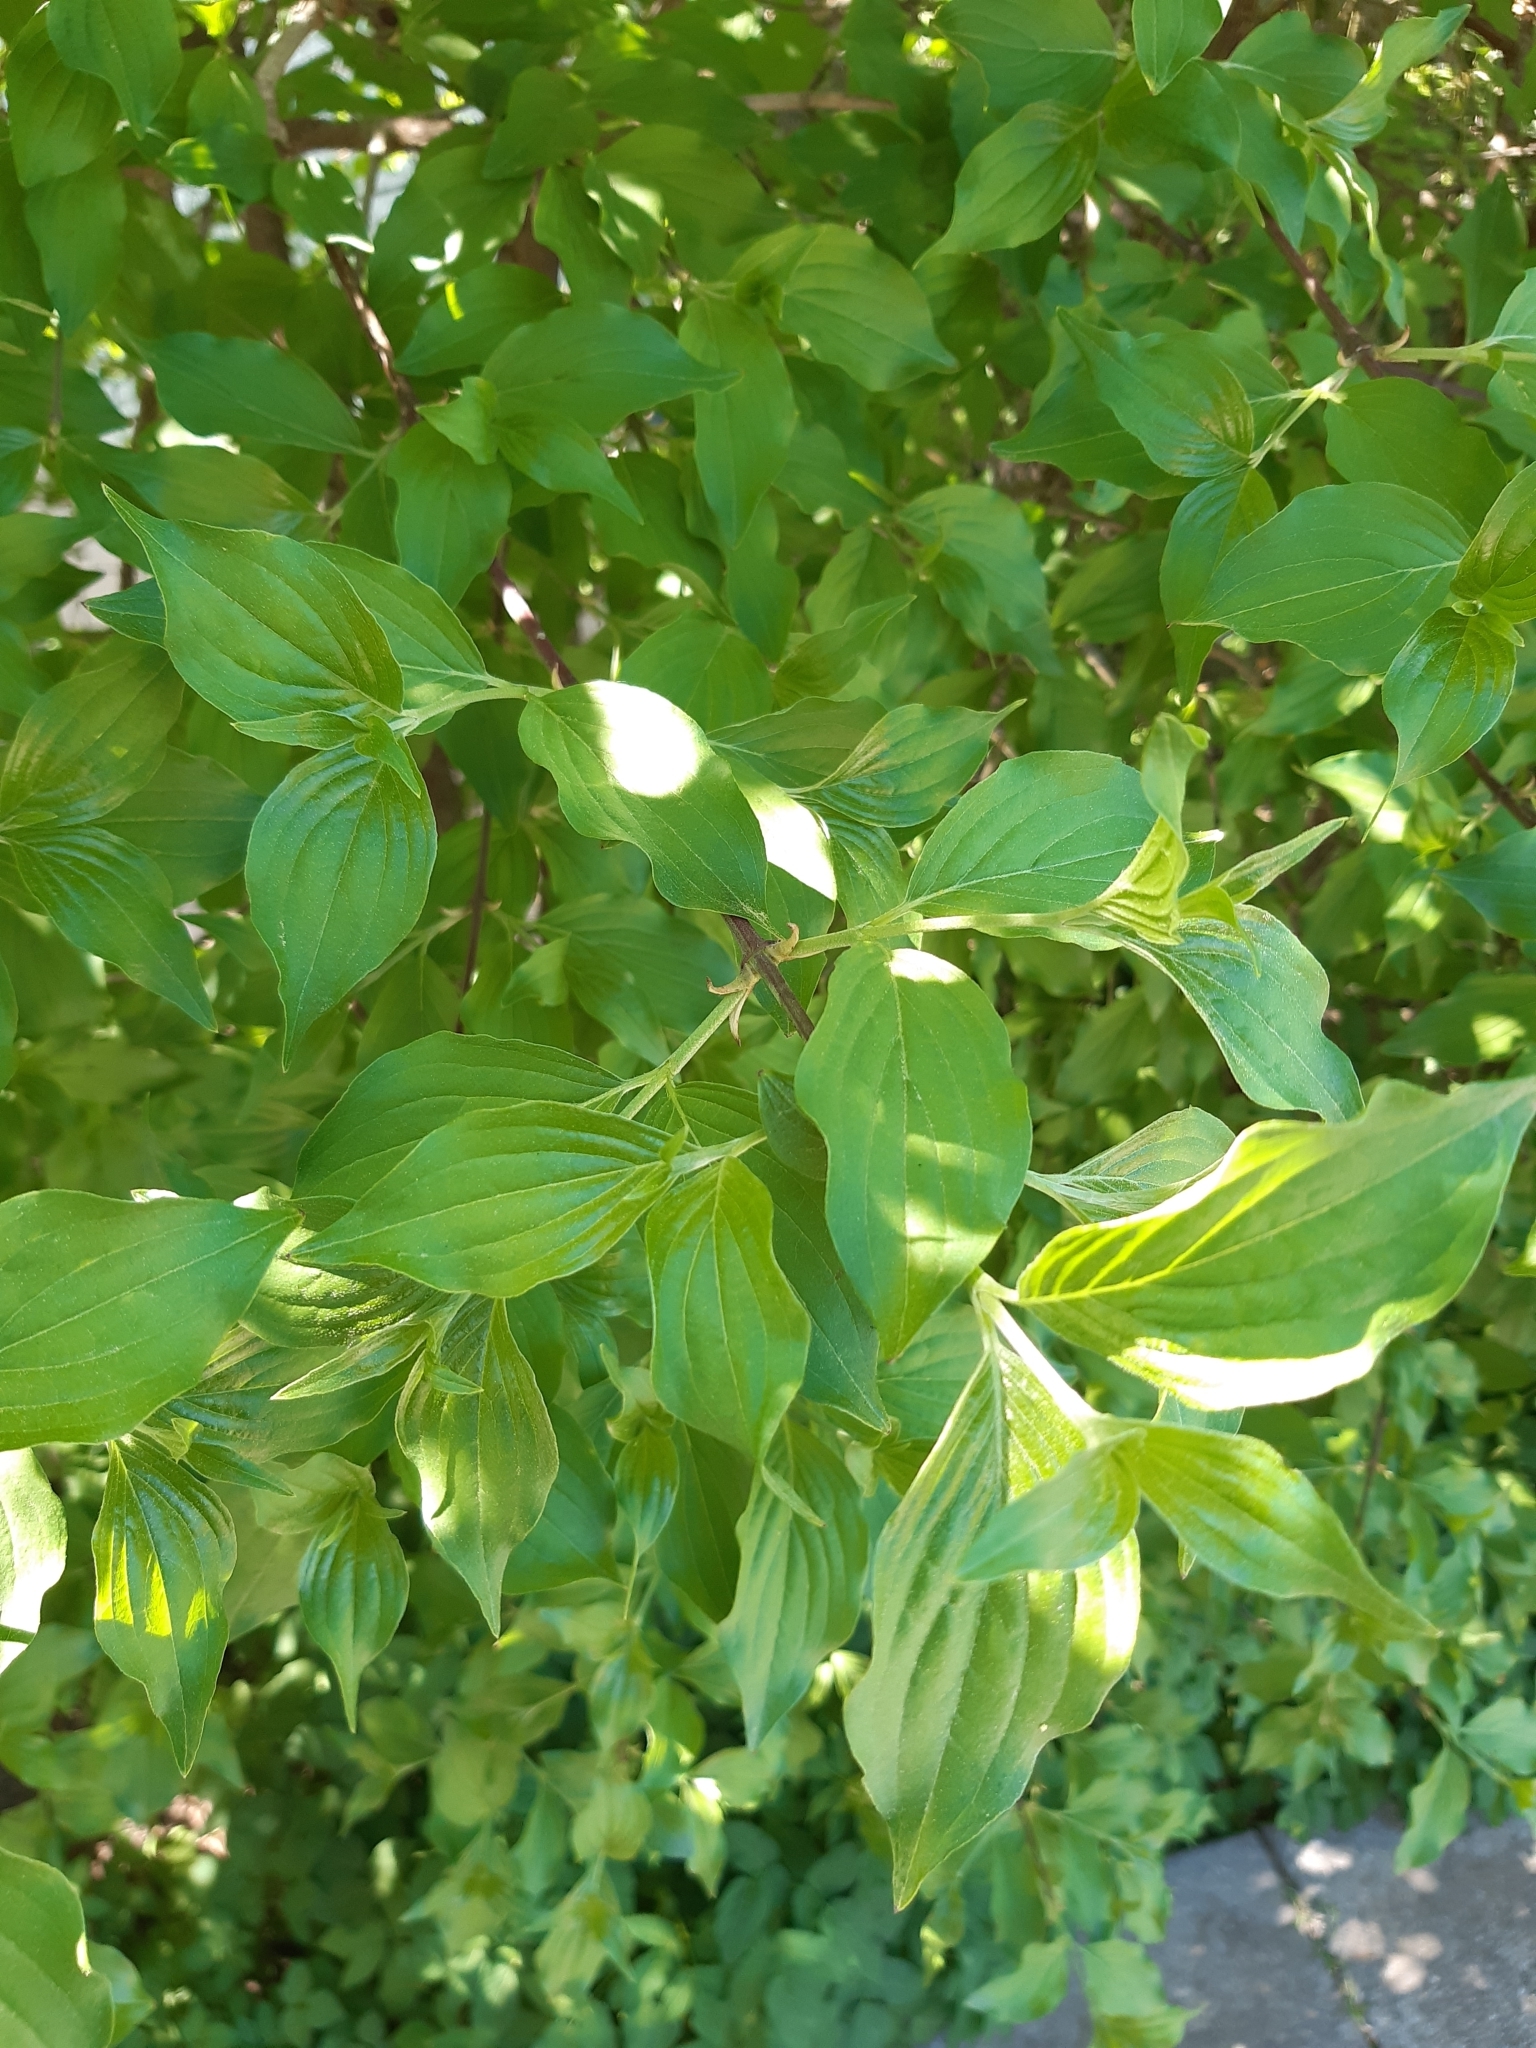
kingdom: Plantae
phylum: Tracheophyta
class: Magnoliopsida
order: Cornales
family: Cornaceae
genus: Cornus
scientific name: Cornus mas
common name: Cornelian-cherry
